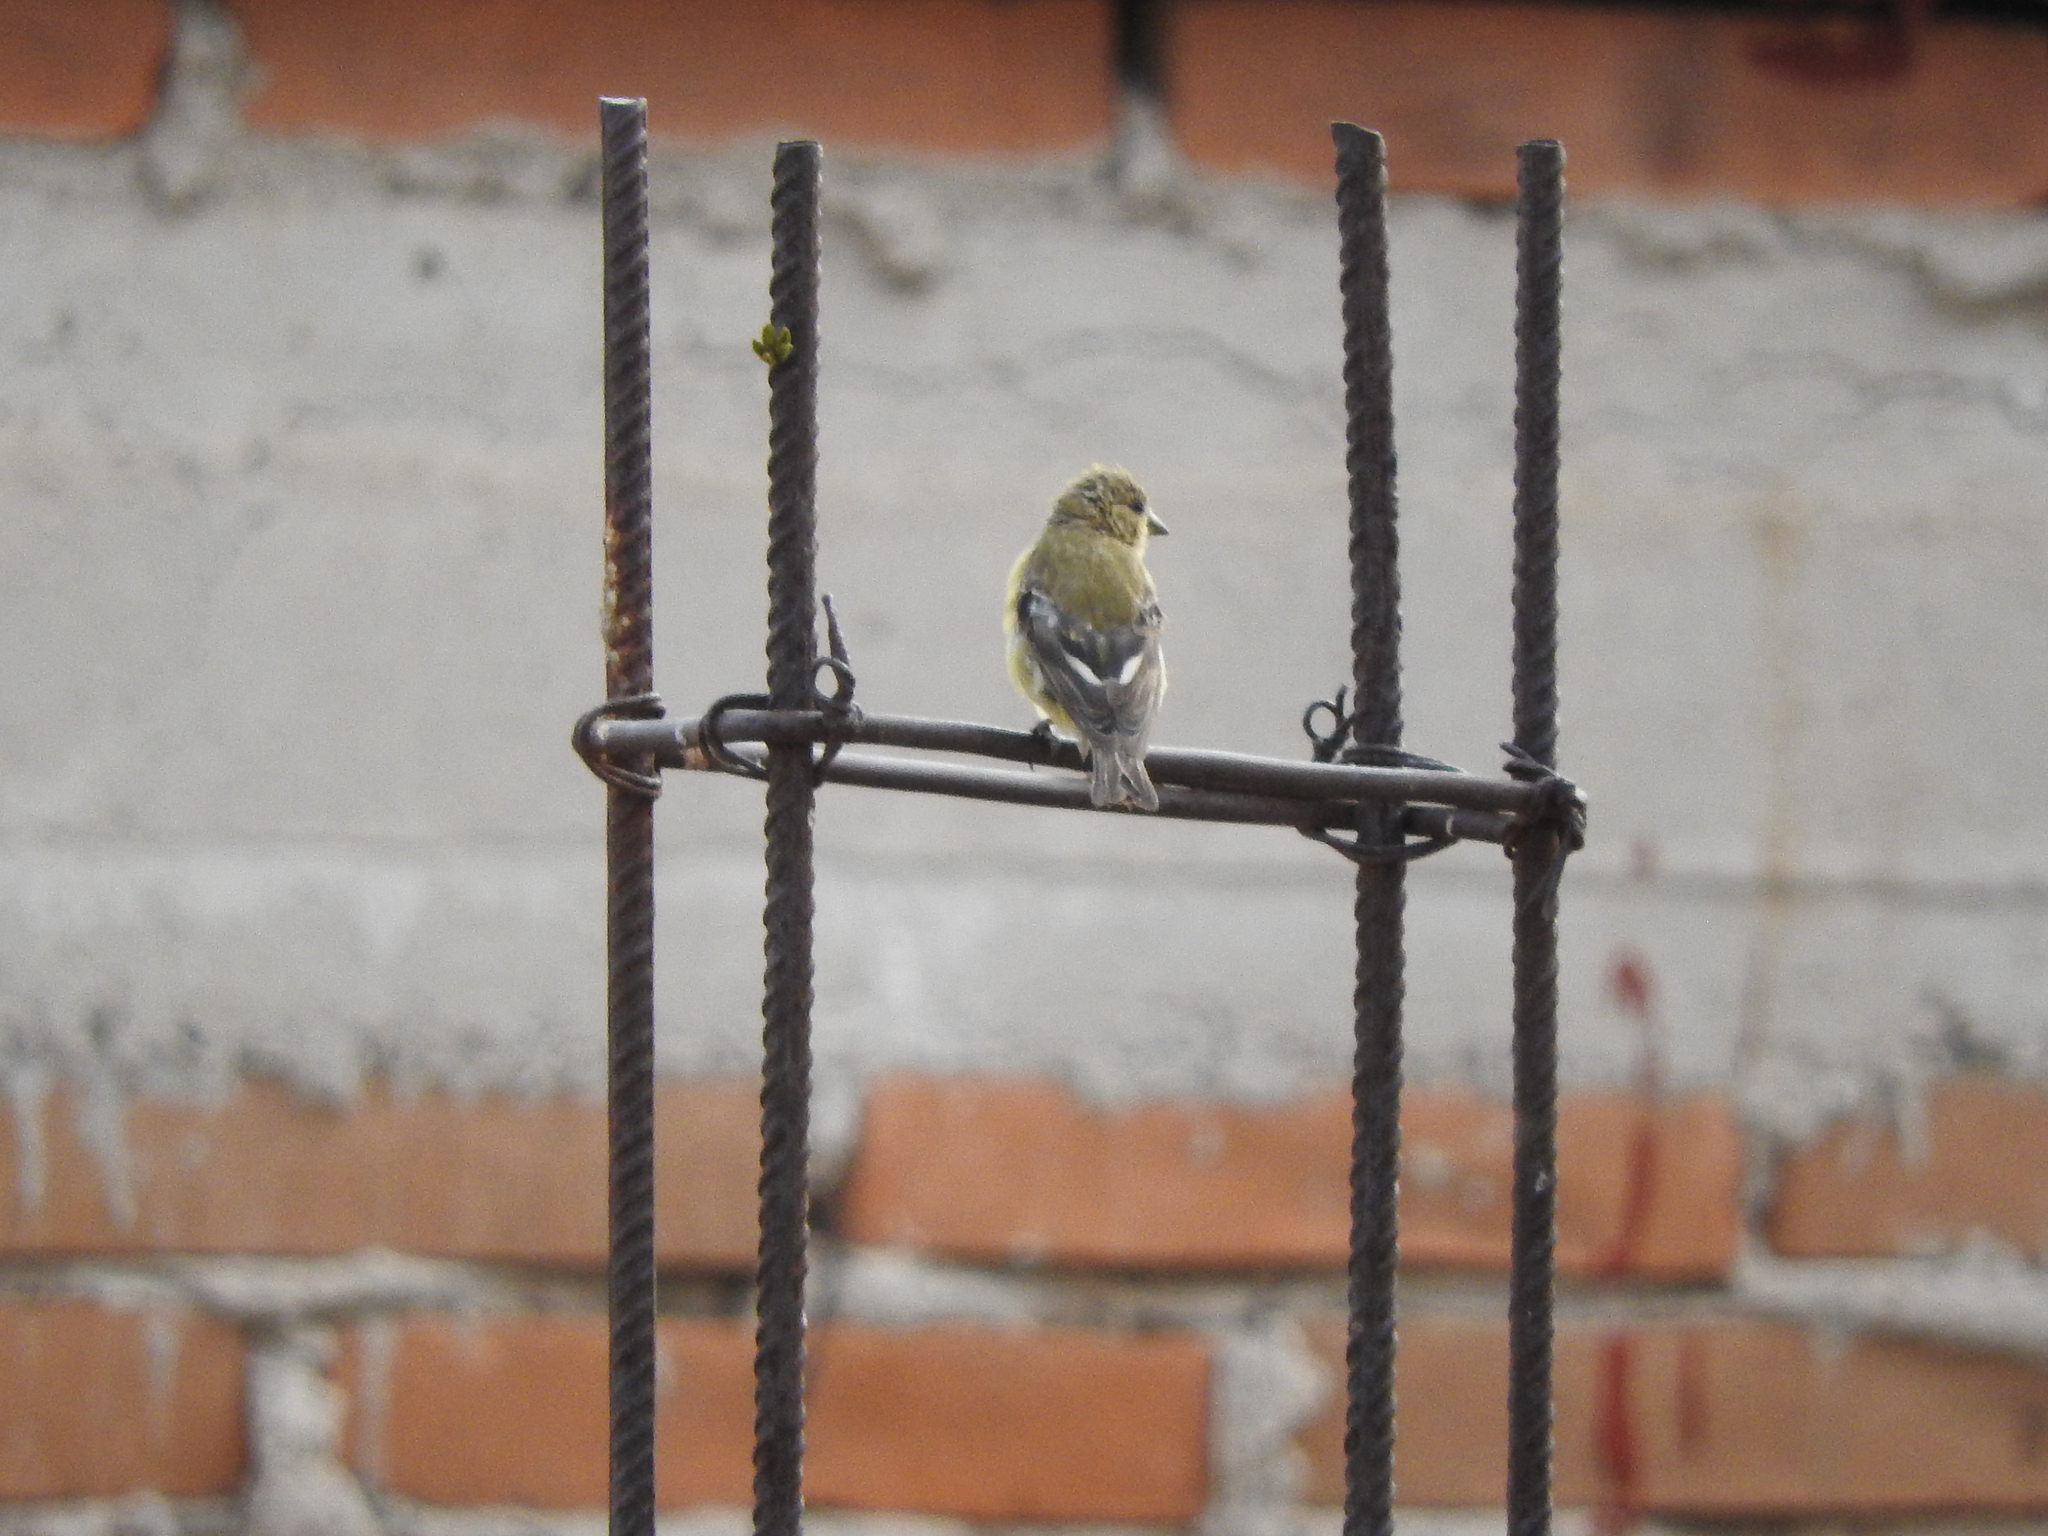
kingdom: Animalia
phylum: Chordata
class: Aves
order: Passeriformes
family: Fringillidae
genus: Spinus
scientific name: Spinus psaltria
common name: Lesser goldfinch
